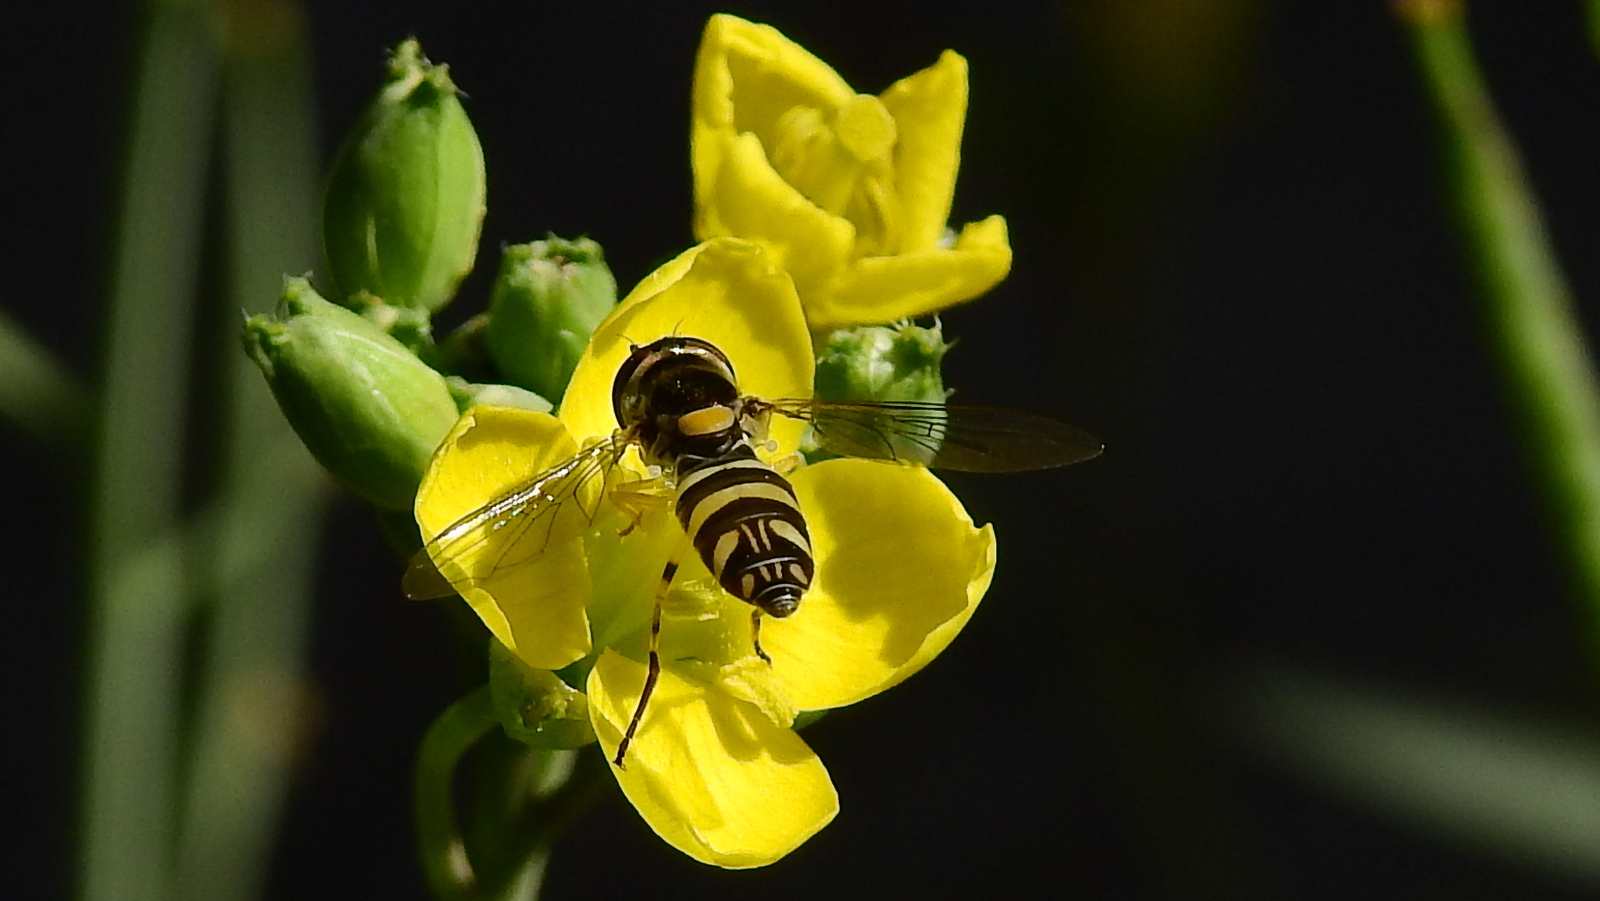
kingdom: Plantae
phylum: Tracheophyta
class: Magnoliopsida
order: Brassicales
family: Brassicaceae
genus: Diplotaxis
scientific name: Diplotaxis tenuifolia
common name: Perennial wall-rocket
